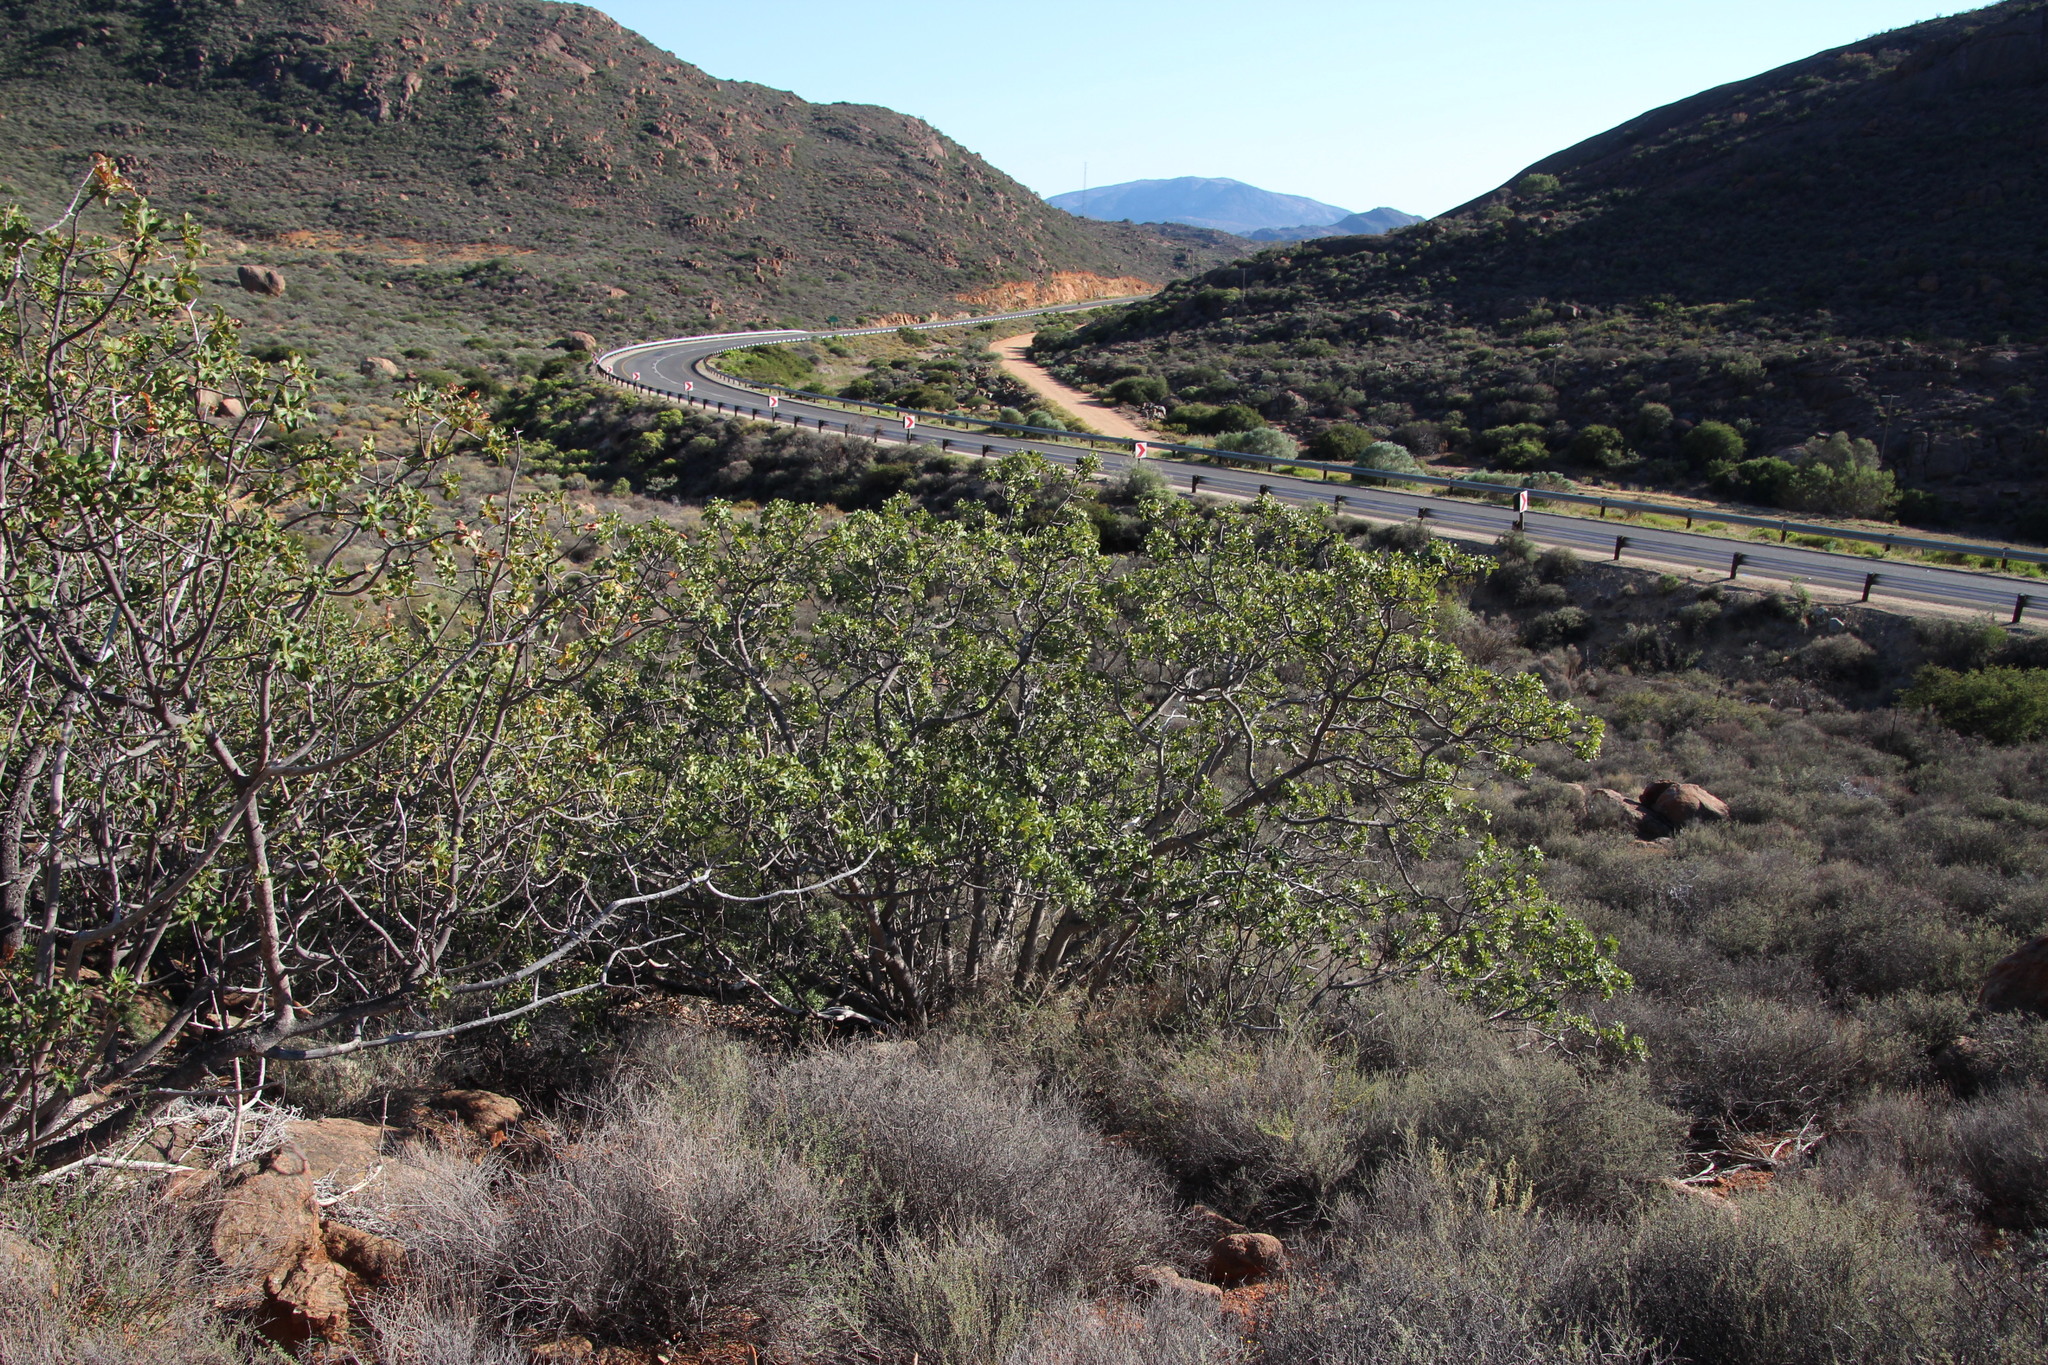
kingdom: Plantae
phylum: Tracheophyta
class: Magnoliopsida
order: Sapindales
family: Anacardiaceae
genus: Ozoroa
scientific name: Ozoroa dispar
